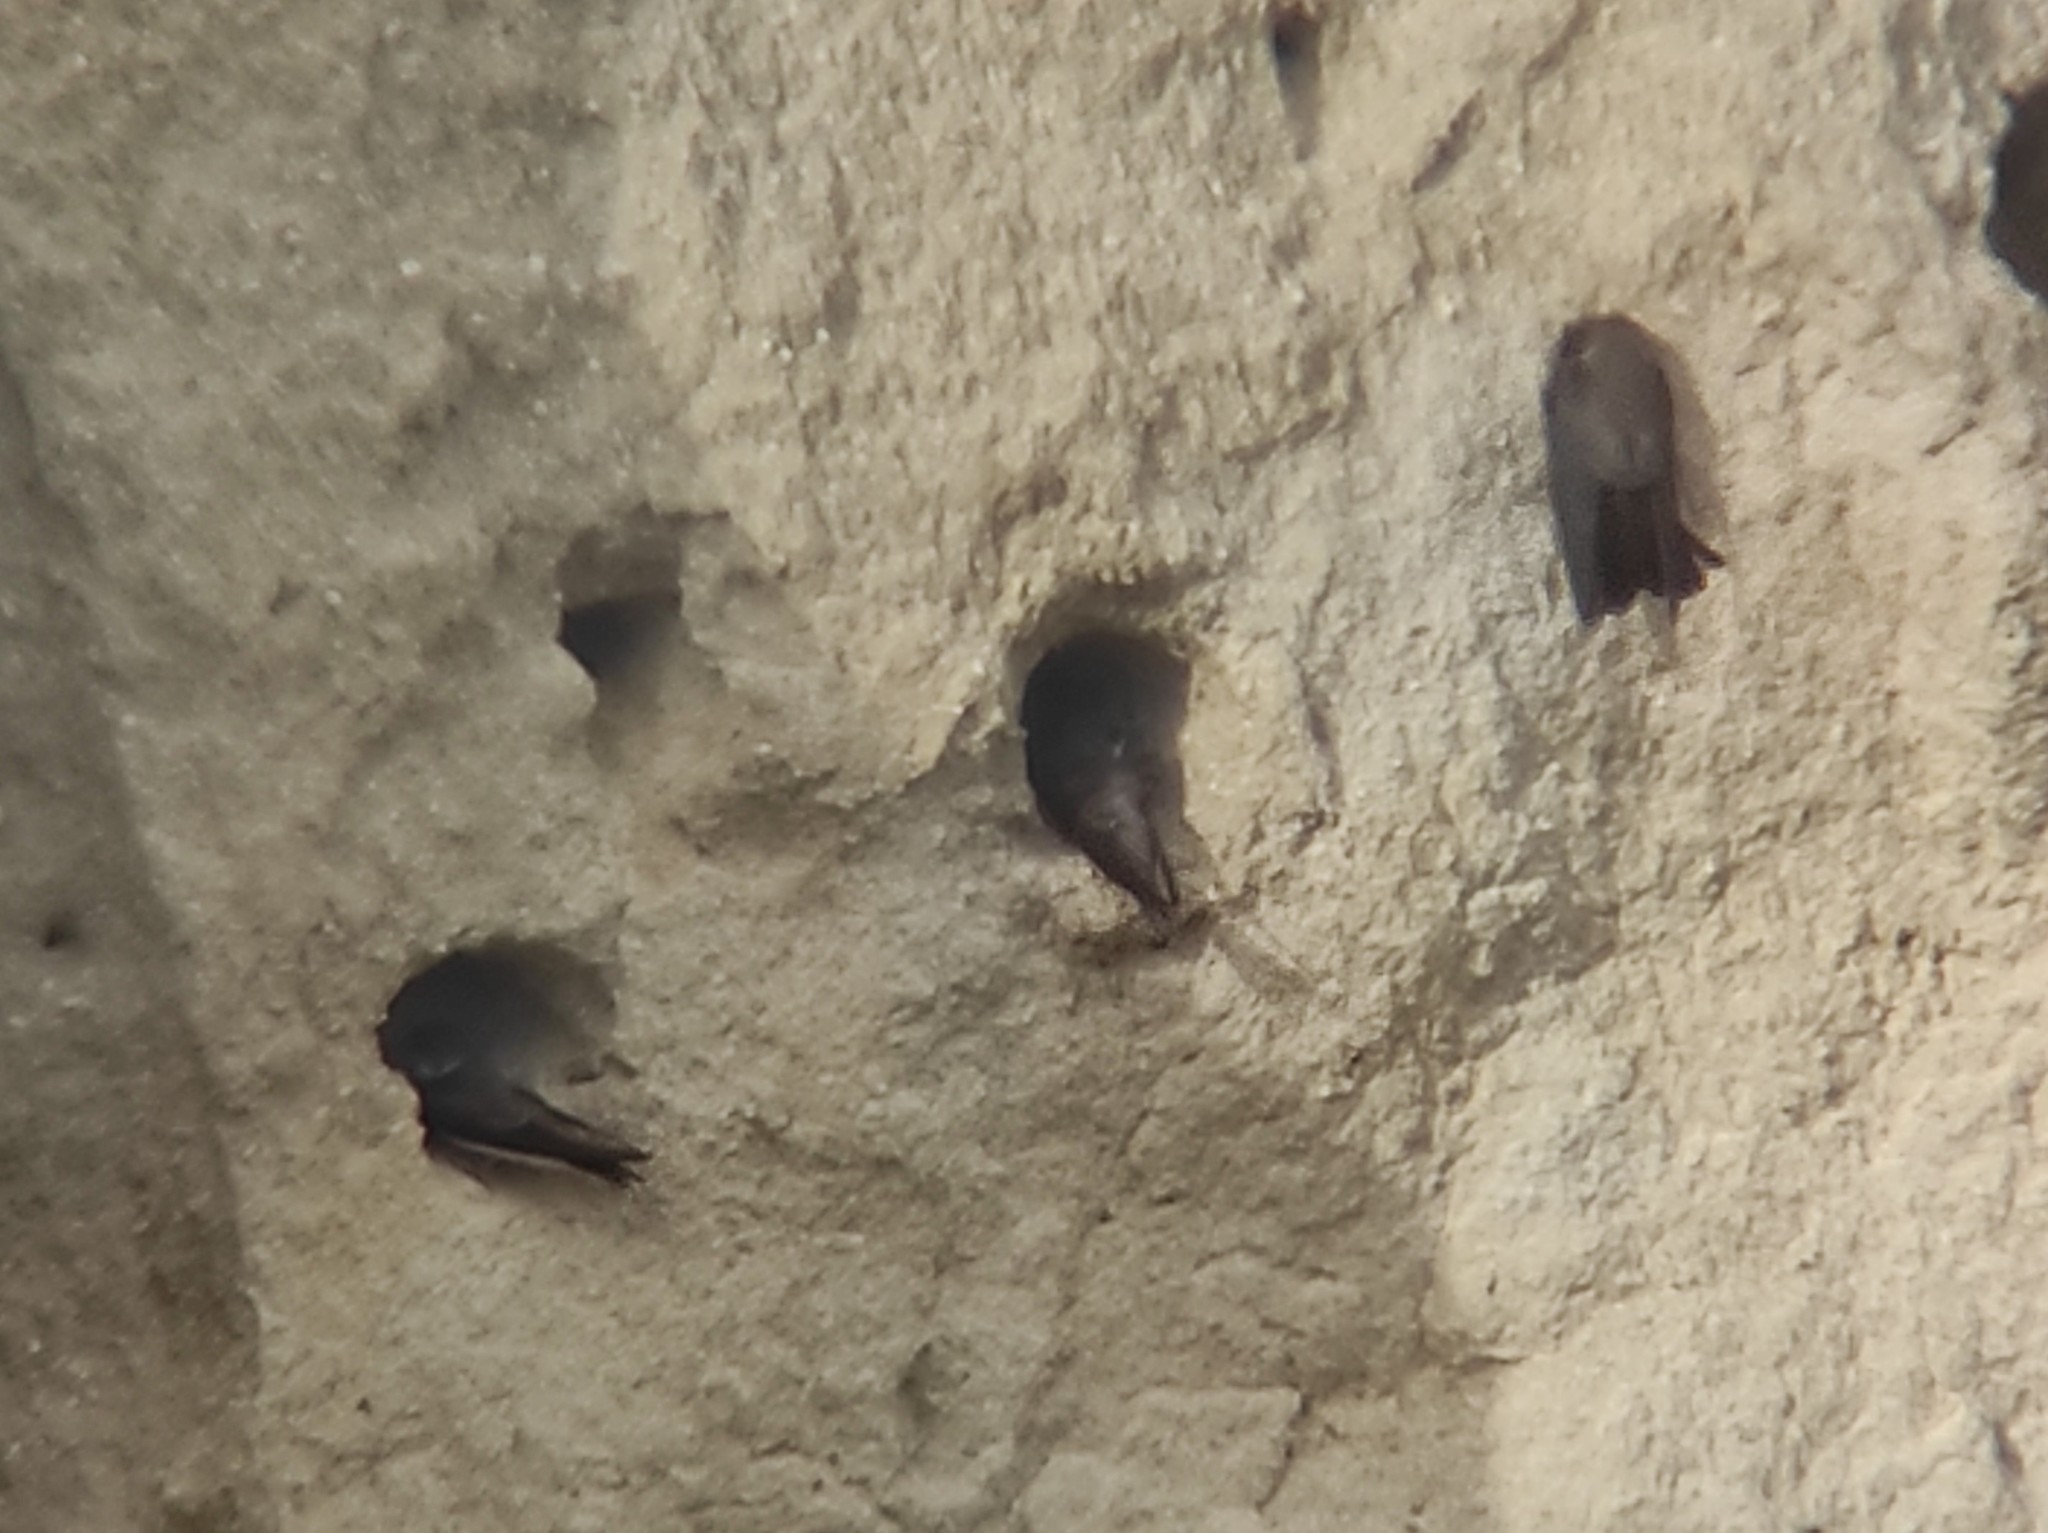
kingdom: Animalia
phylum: Chordata
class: Aves
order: Passeriformes
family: Hirundinidae
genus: Riparia
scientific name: Riparia riparia
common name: Sand martin
